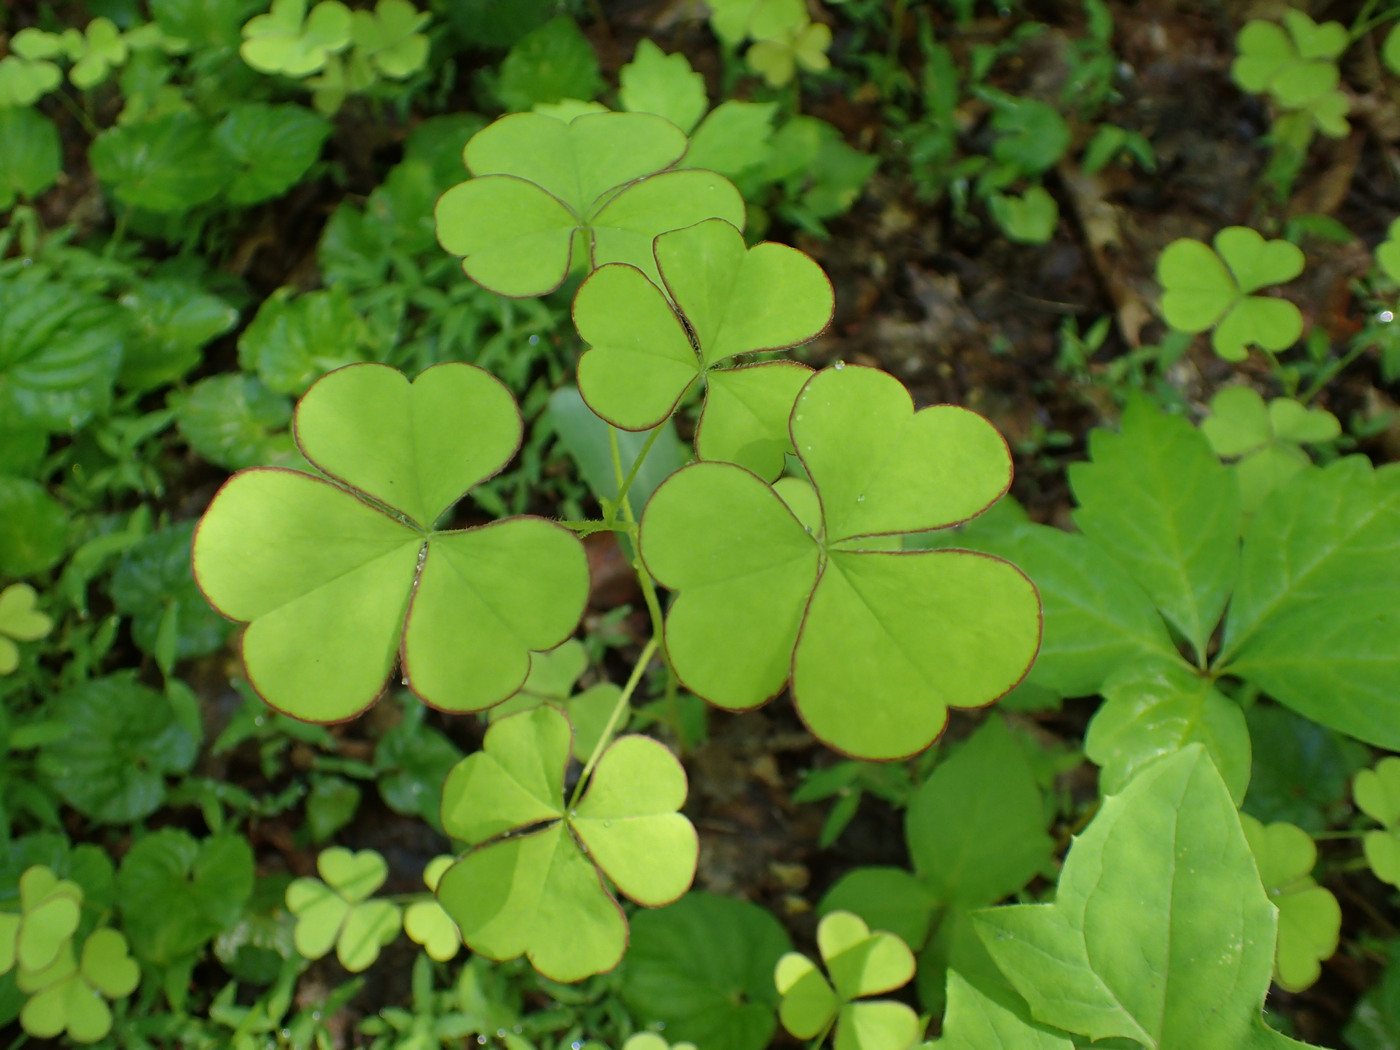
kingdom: Plantae
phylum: Tracheophyta
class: Magnoliopsida
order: Oxalidales
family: Oxalidaceae
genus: Oxalis
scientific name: Oxalis grandis
